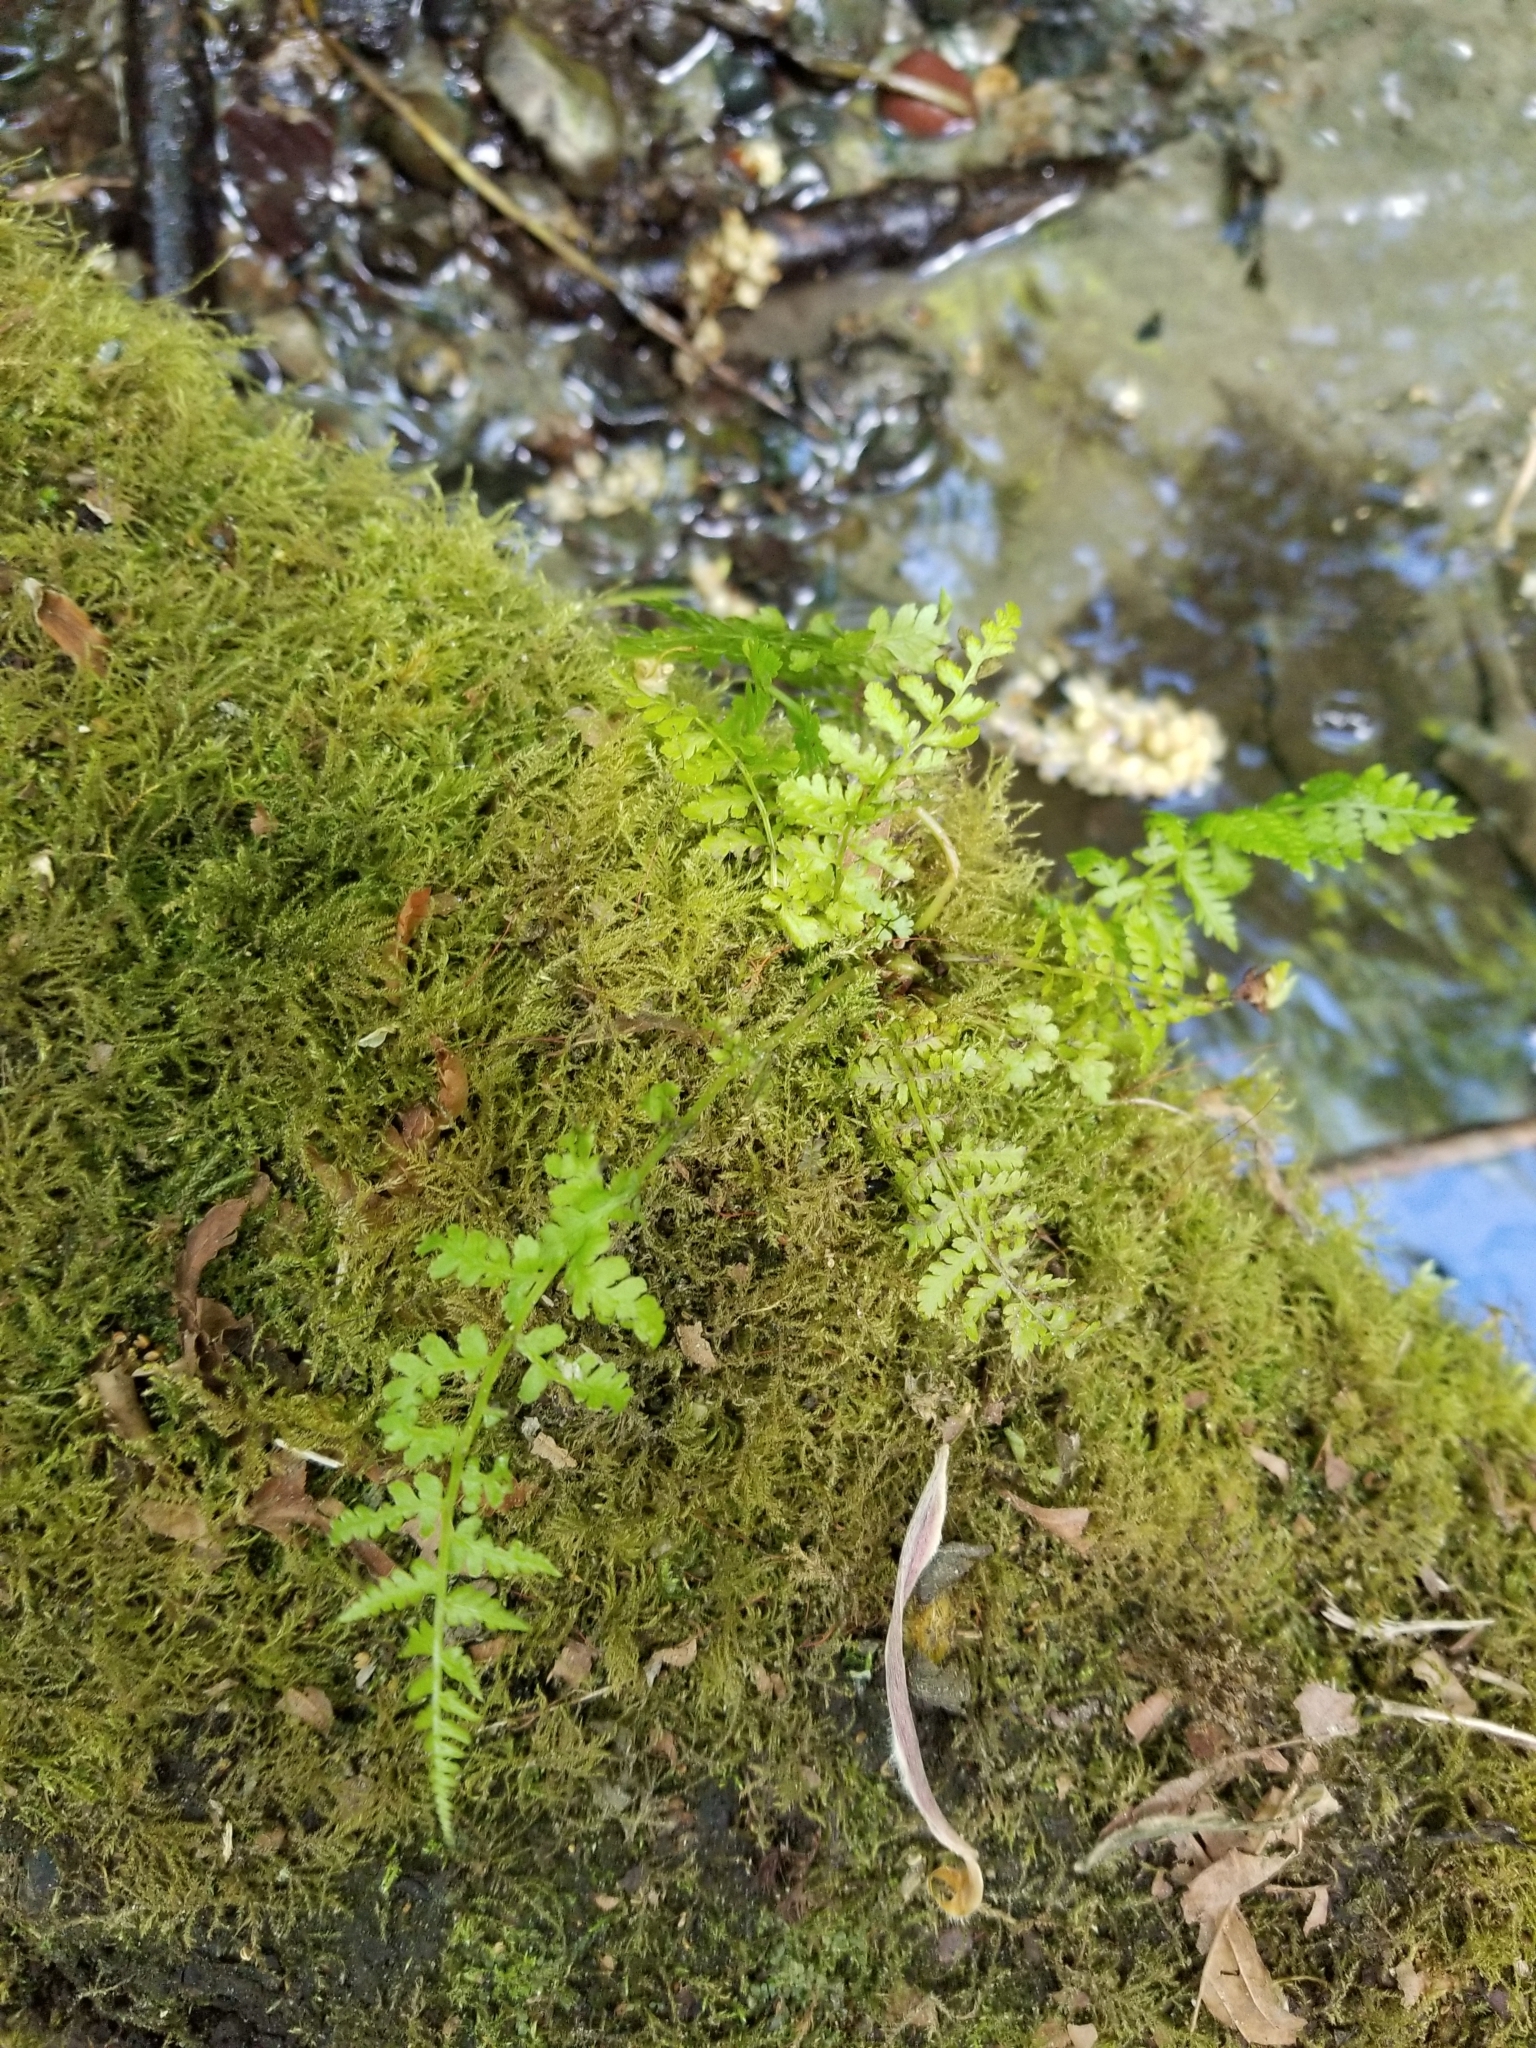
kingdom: Plantae
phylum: Tracheophyta
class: Polypodiopsida
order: Polypodiales
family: Athyriaceae
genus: Athyrium
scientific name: Athyrium filix-femina
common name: Lady fern
